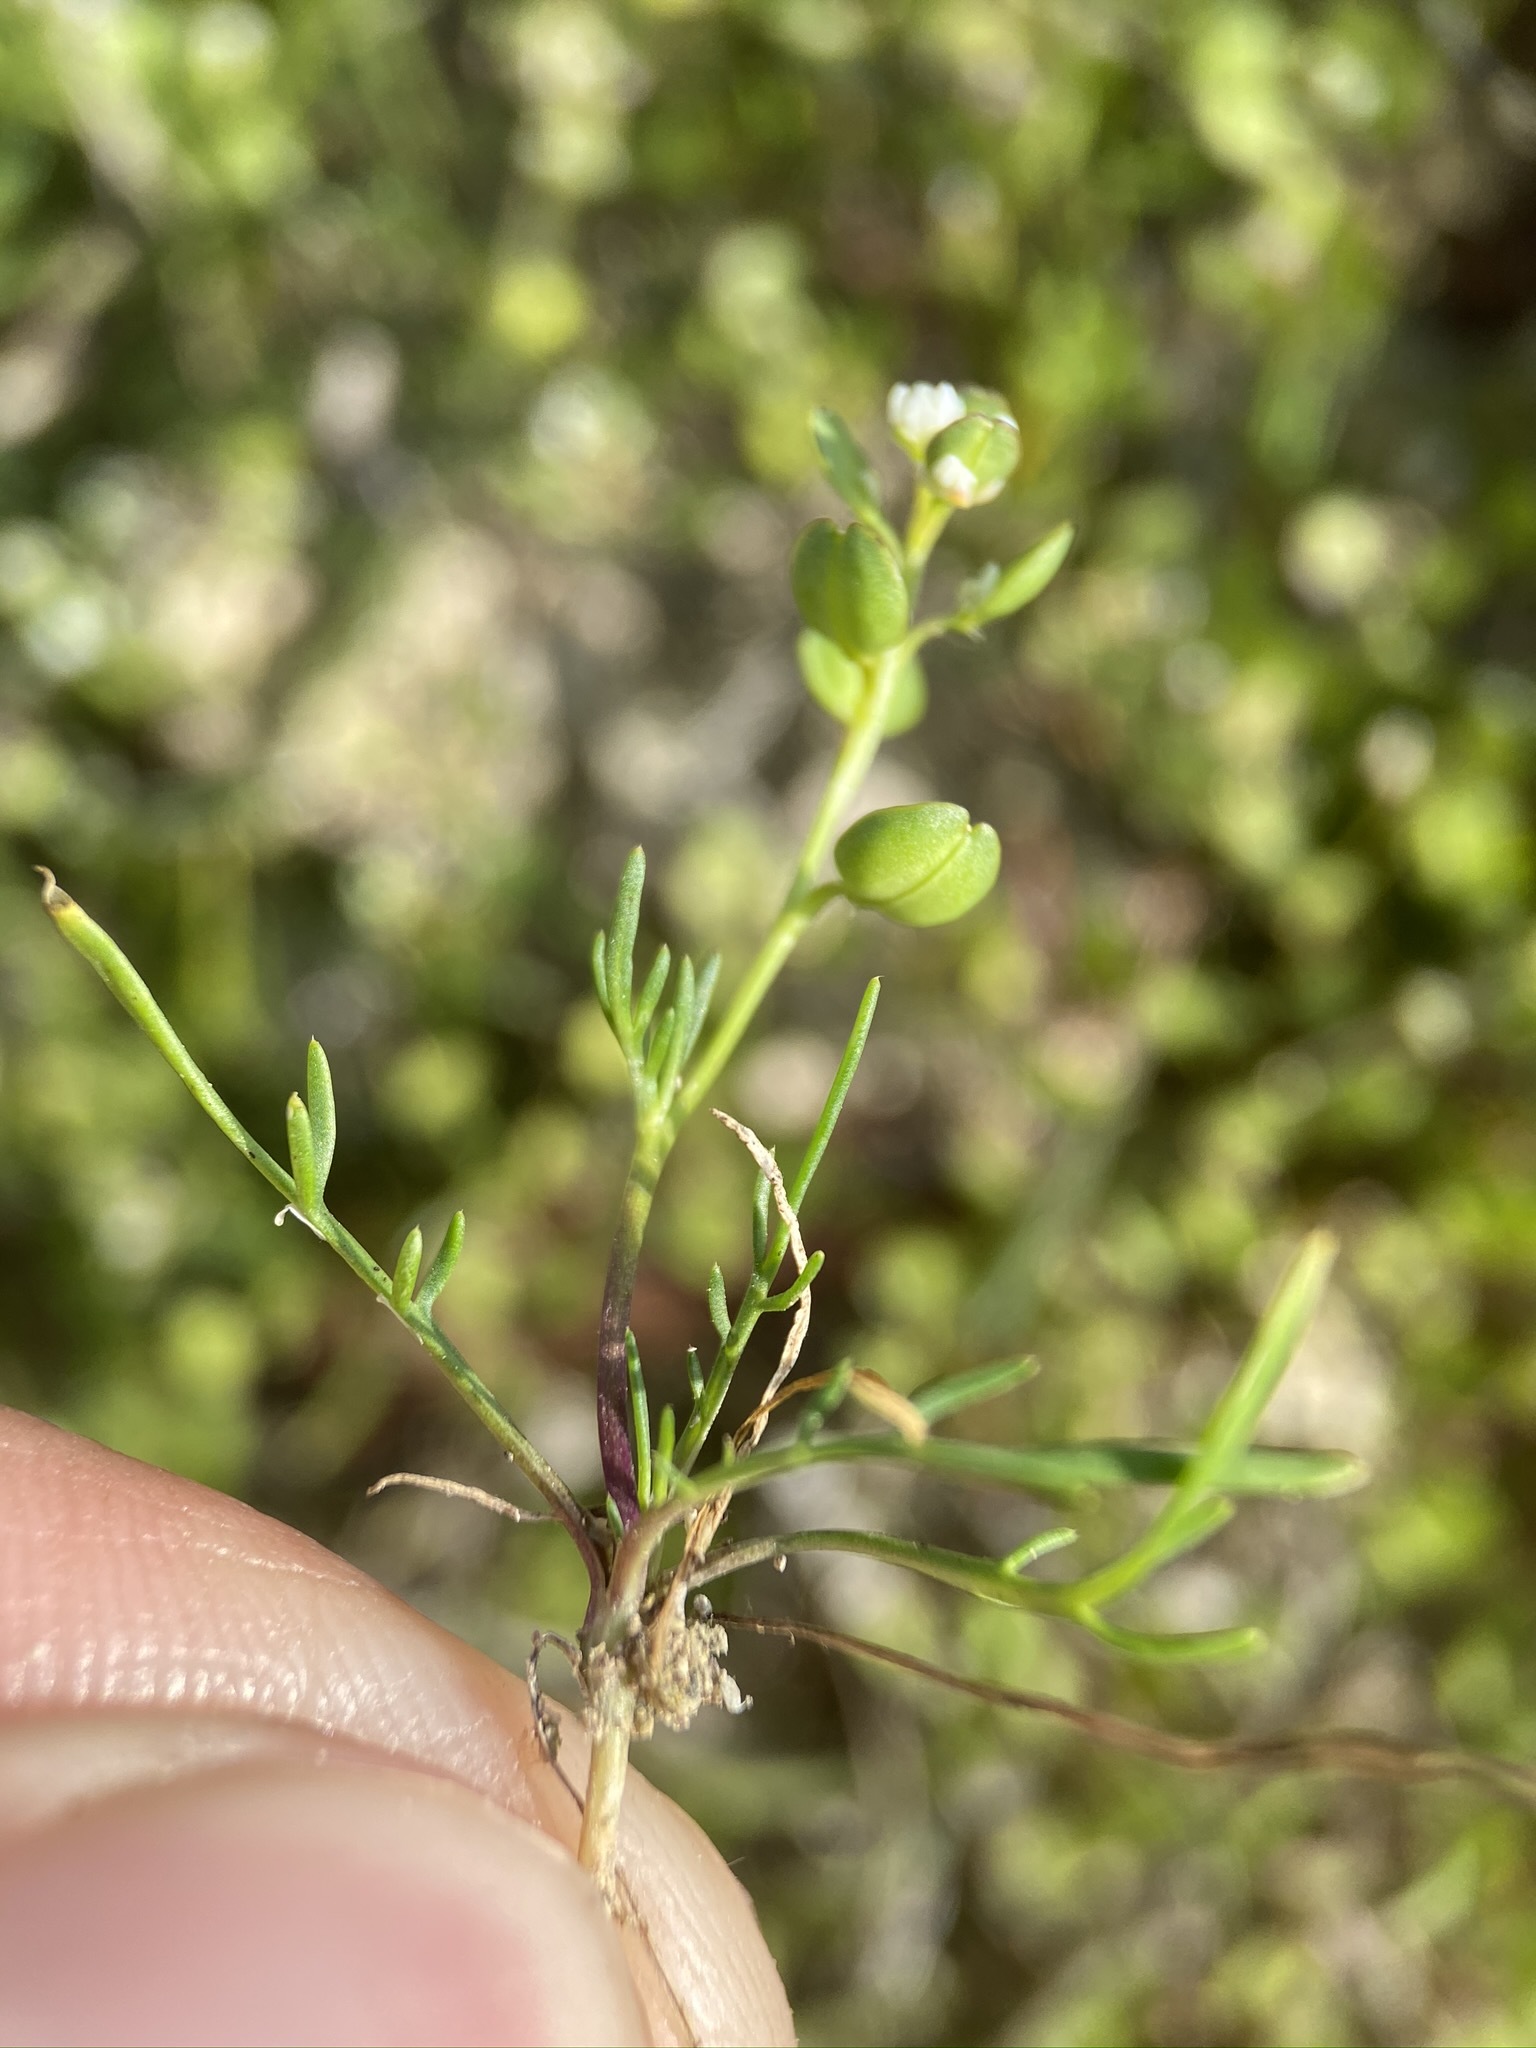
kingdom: Plantae
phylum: Tracheophyta
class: Magnoliopsida
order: Brassicales
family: Brassicaceae
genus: Lepidium
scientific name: Lepidium nitidum
